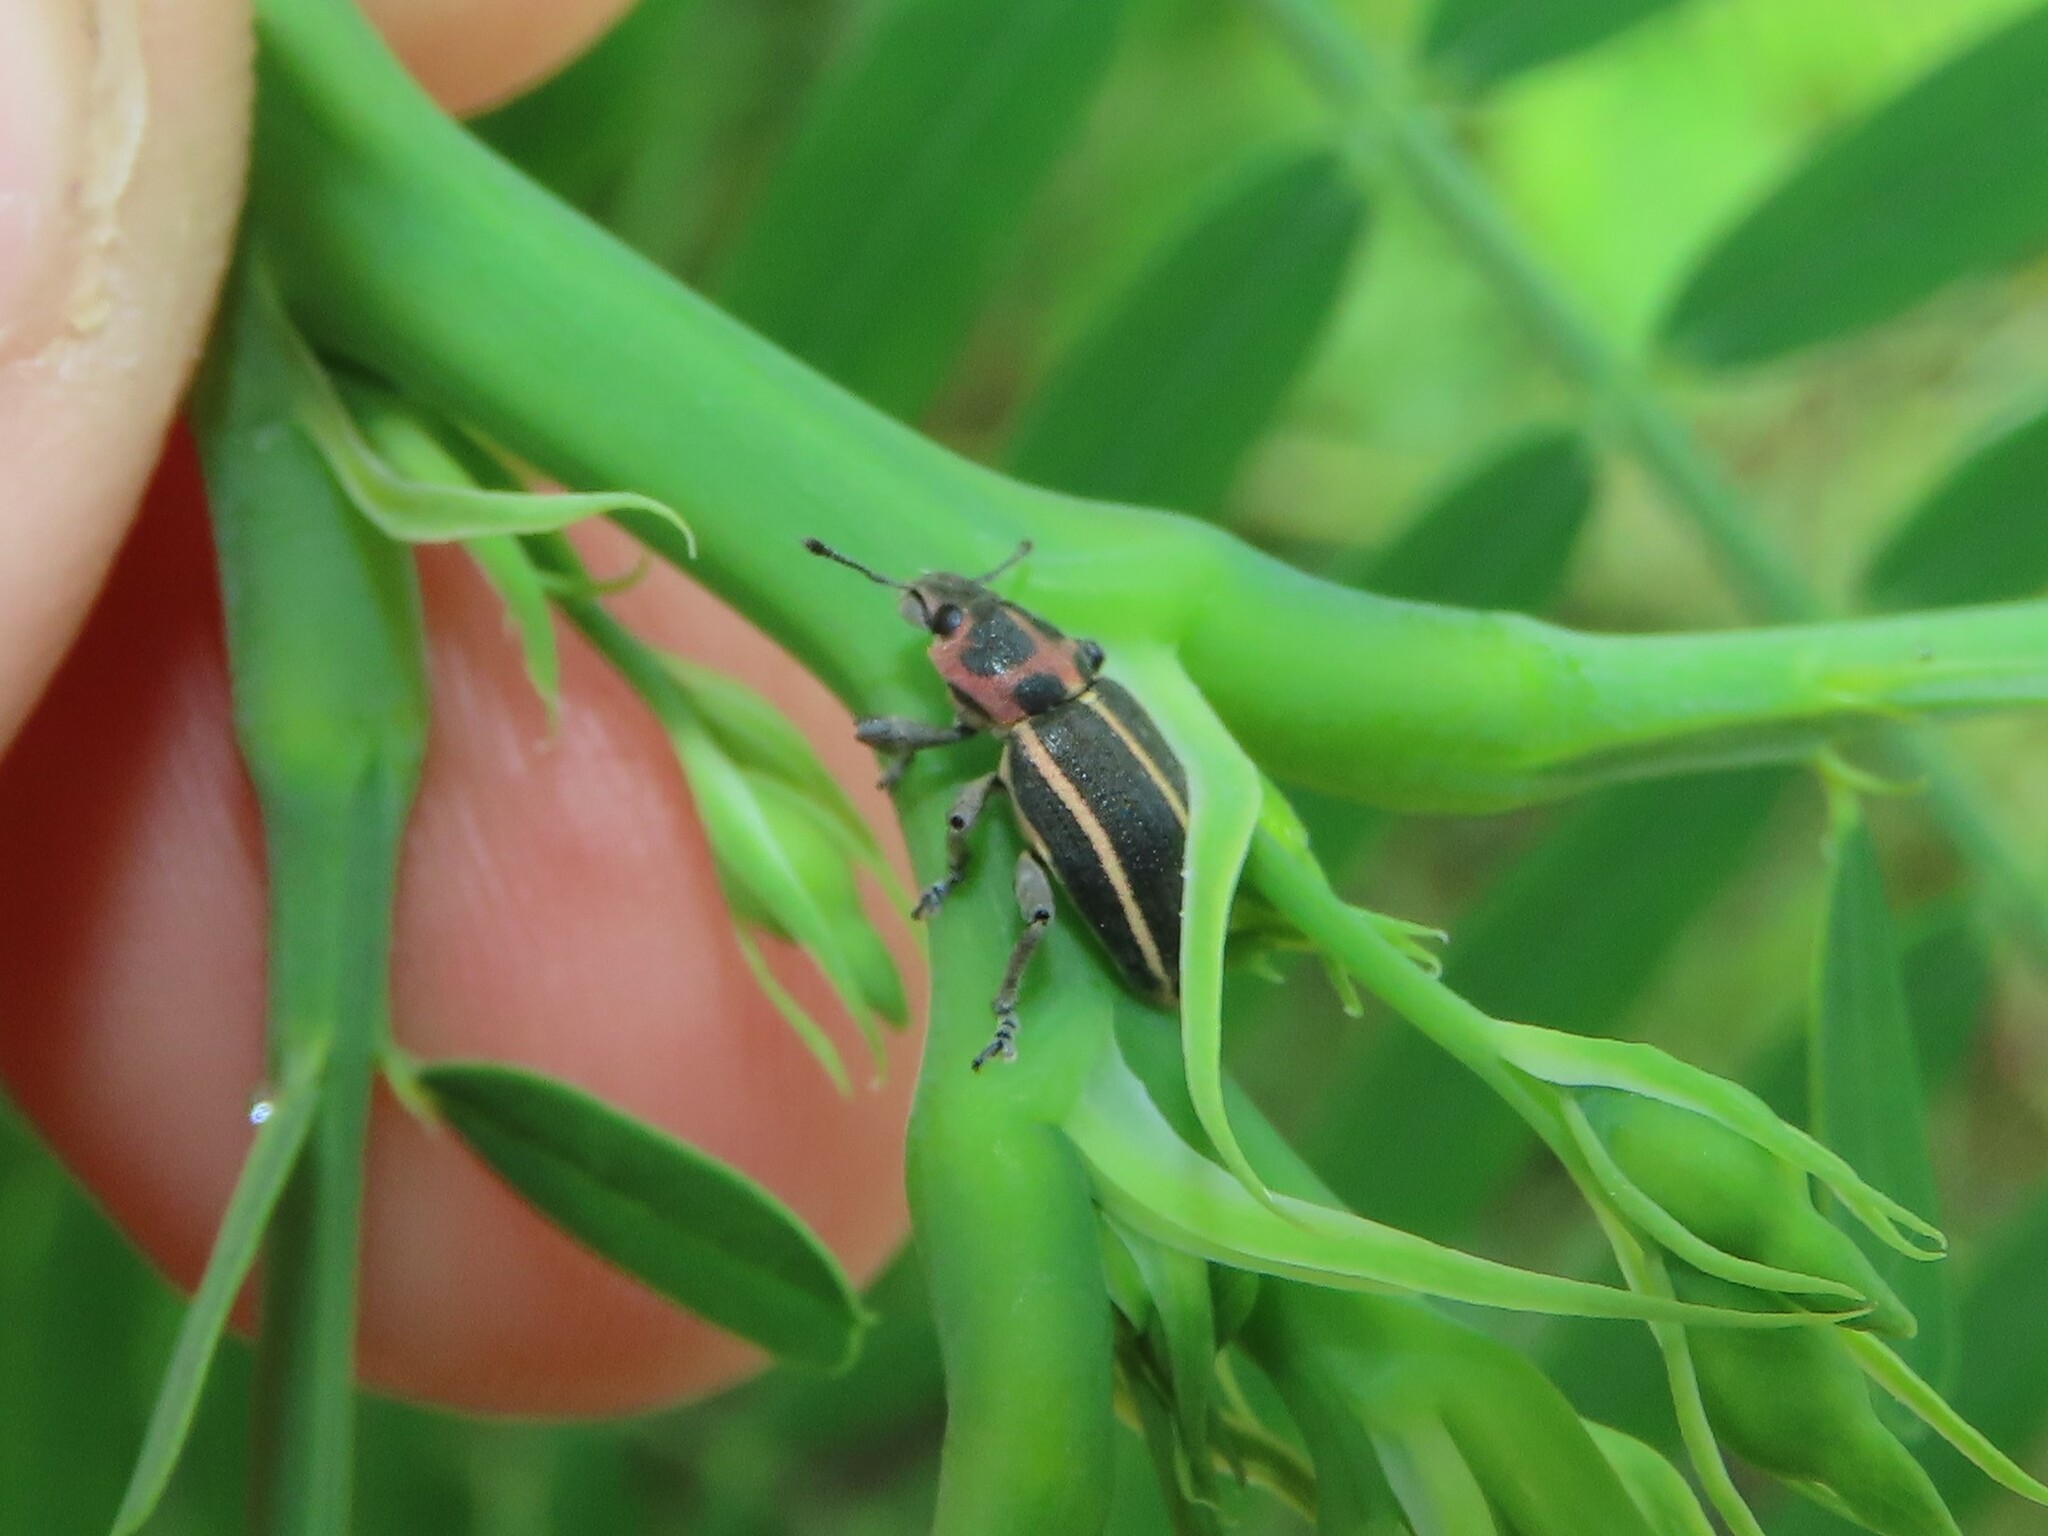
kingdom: Animalia
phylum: Arthropoda
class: Insecta
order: Coleoptera
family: Curculionidae
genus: Eudiagogus
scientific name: Eudiagogus maryae
